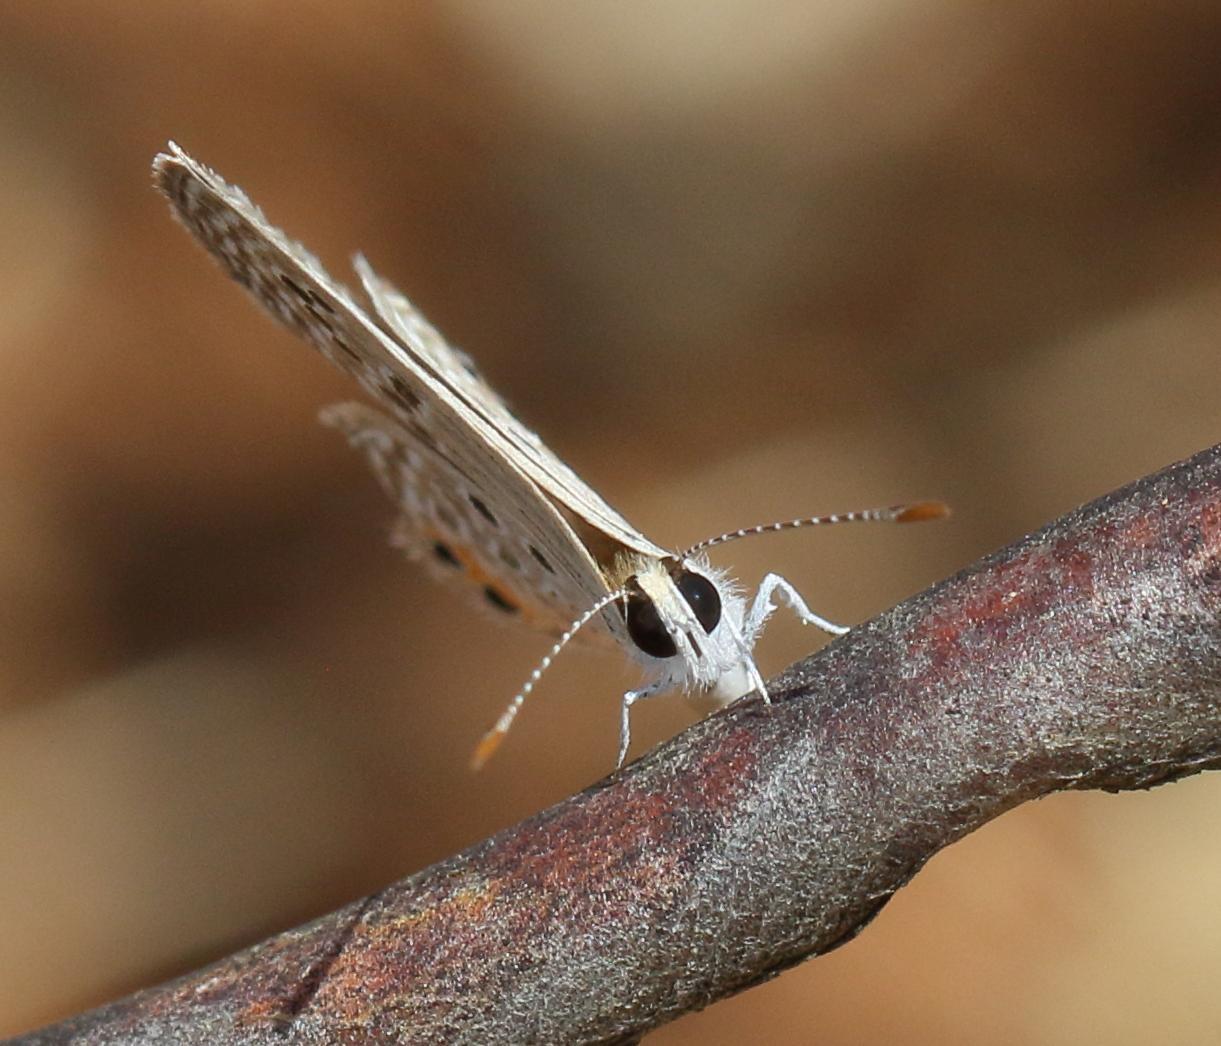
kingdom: Animalia
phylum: Arthropoda
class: Insecta
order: Lepidoptera
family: Lycaenidae
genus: Freyeria
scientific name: Freyeria trochylus
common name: Grass jewel
